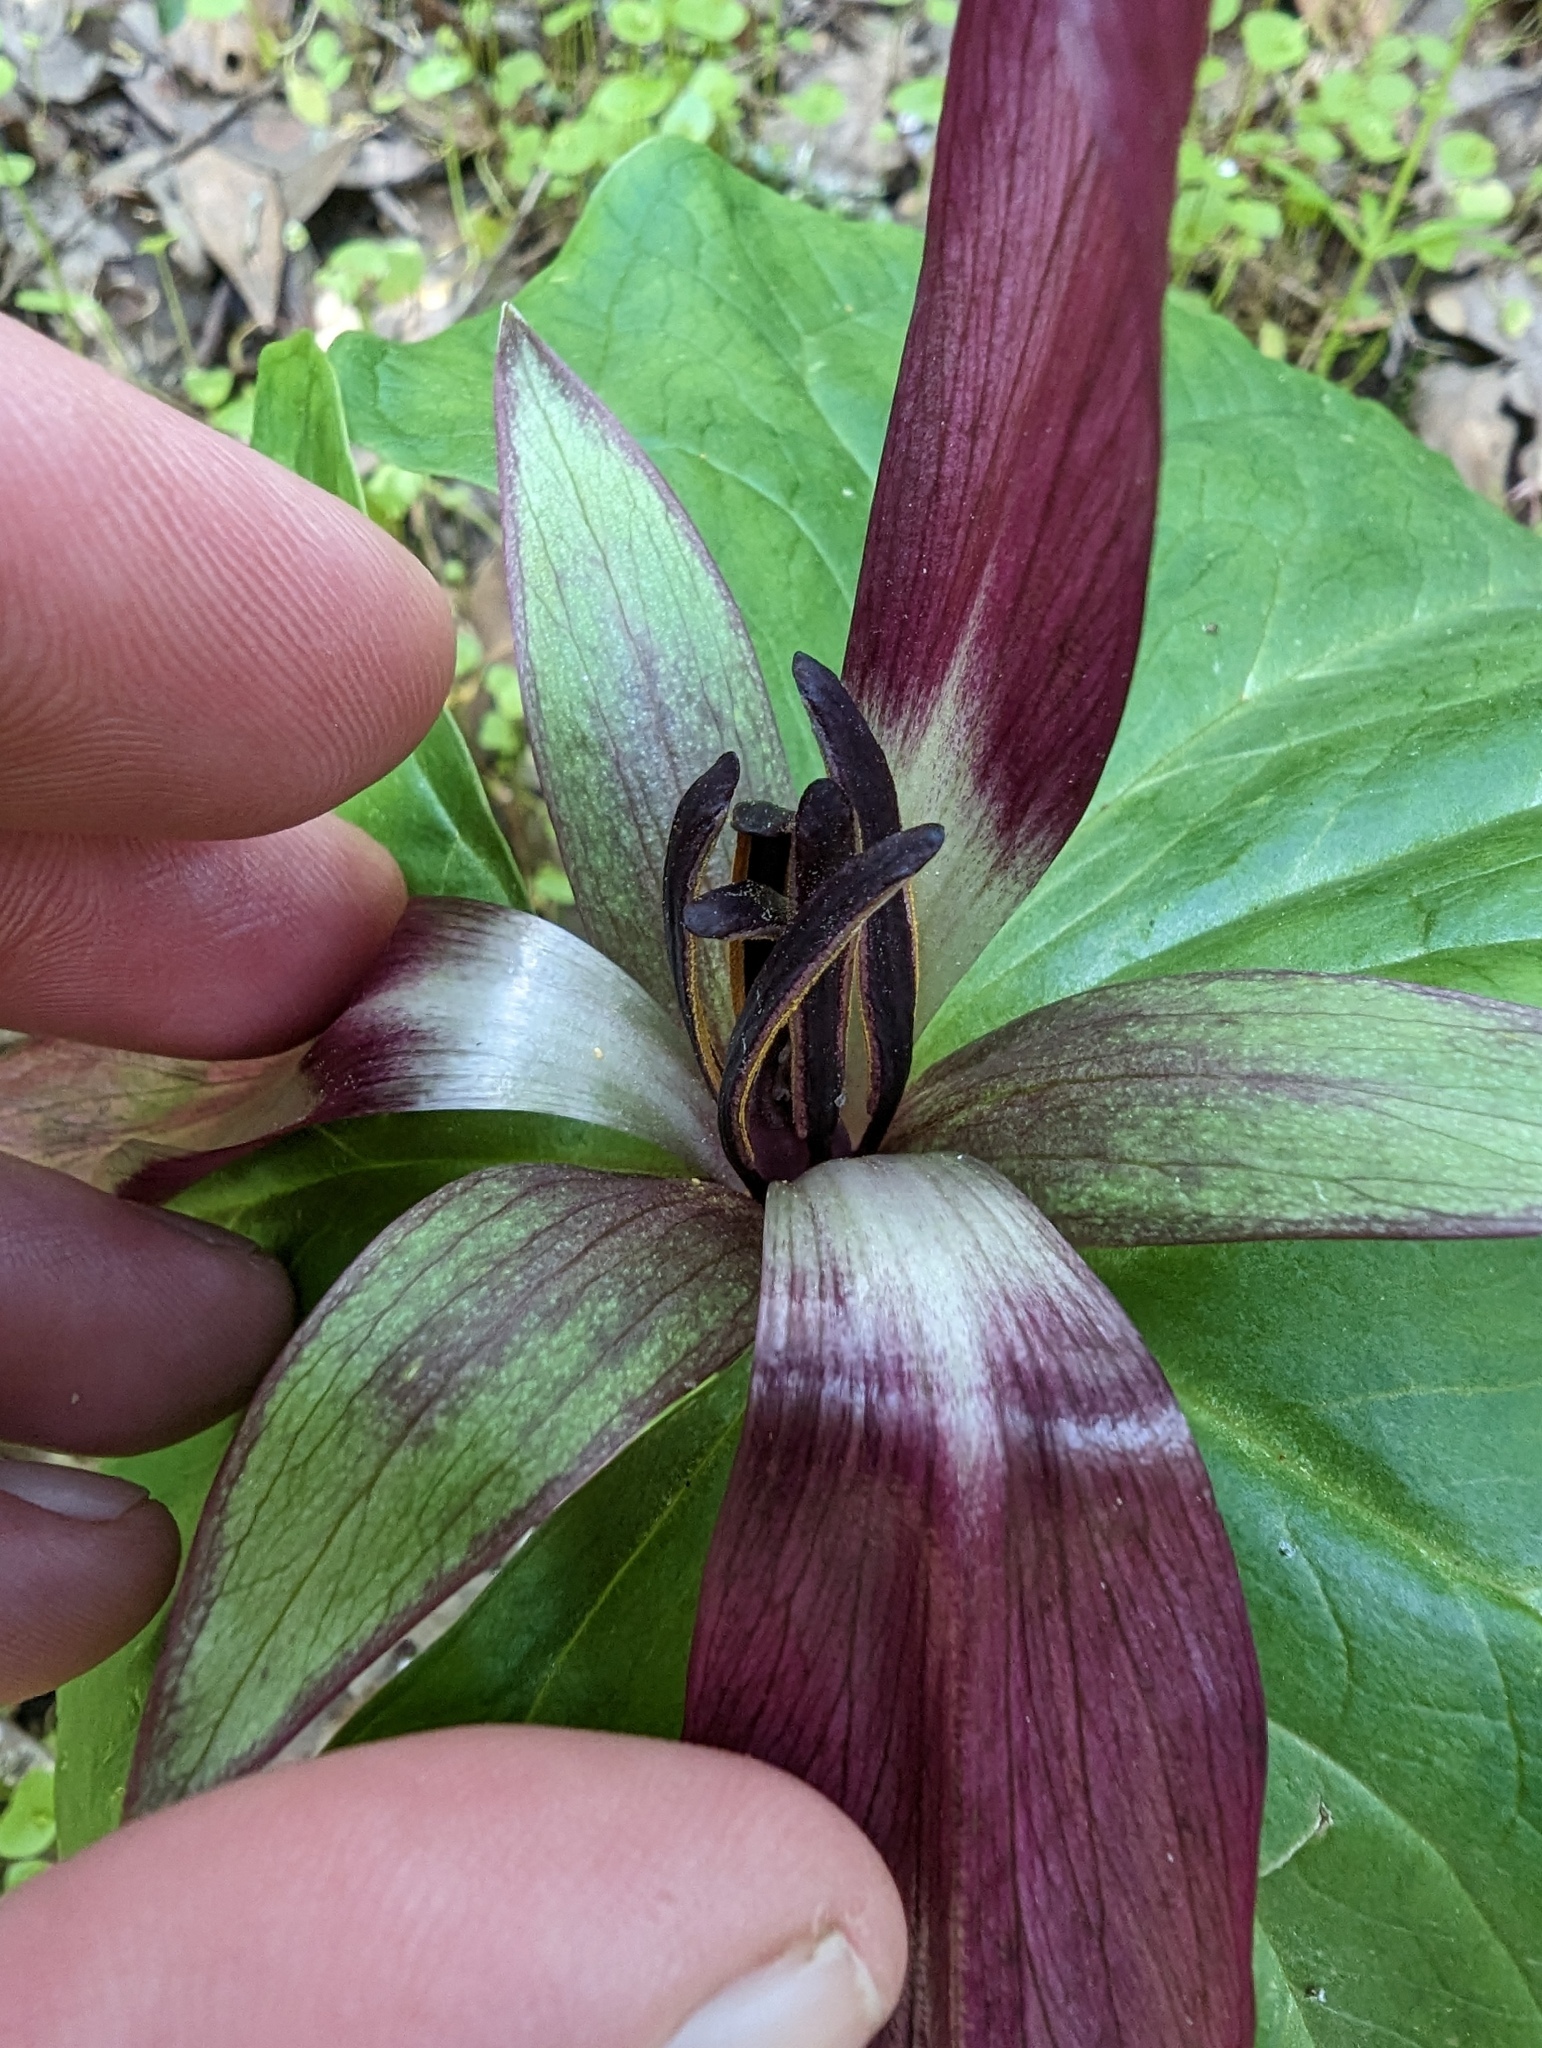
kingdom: Plantae
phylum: Tracheophyta
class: Liliopsida
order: Liliales
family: Melanthiaceae
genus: Trillium
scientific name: Trillium chloropetalum
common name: Giant trillium
